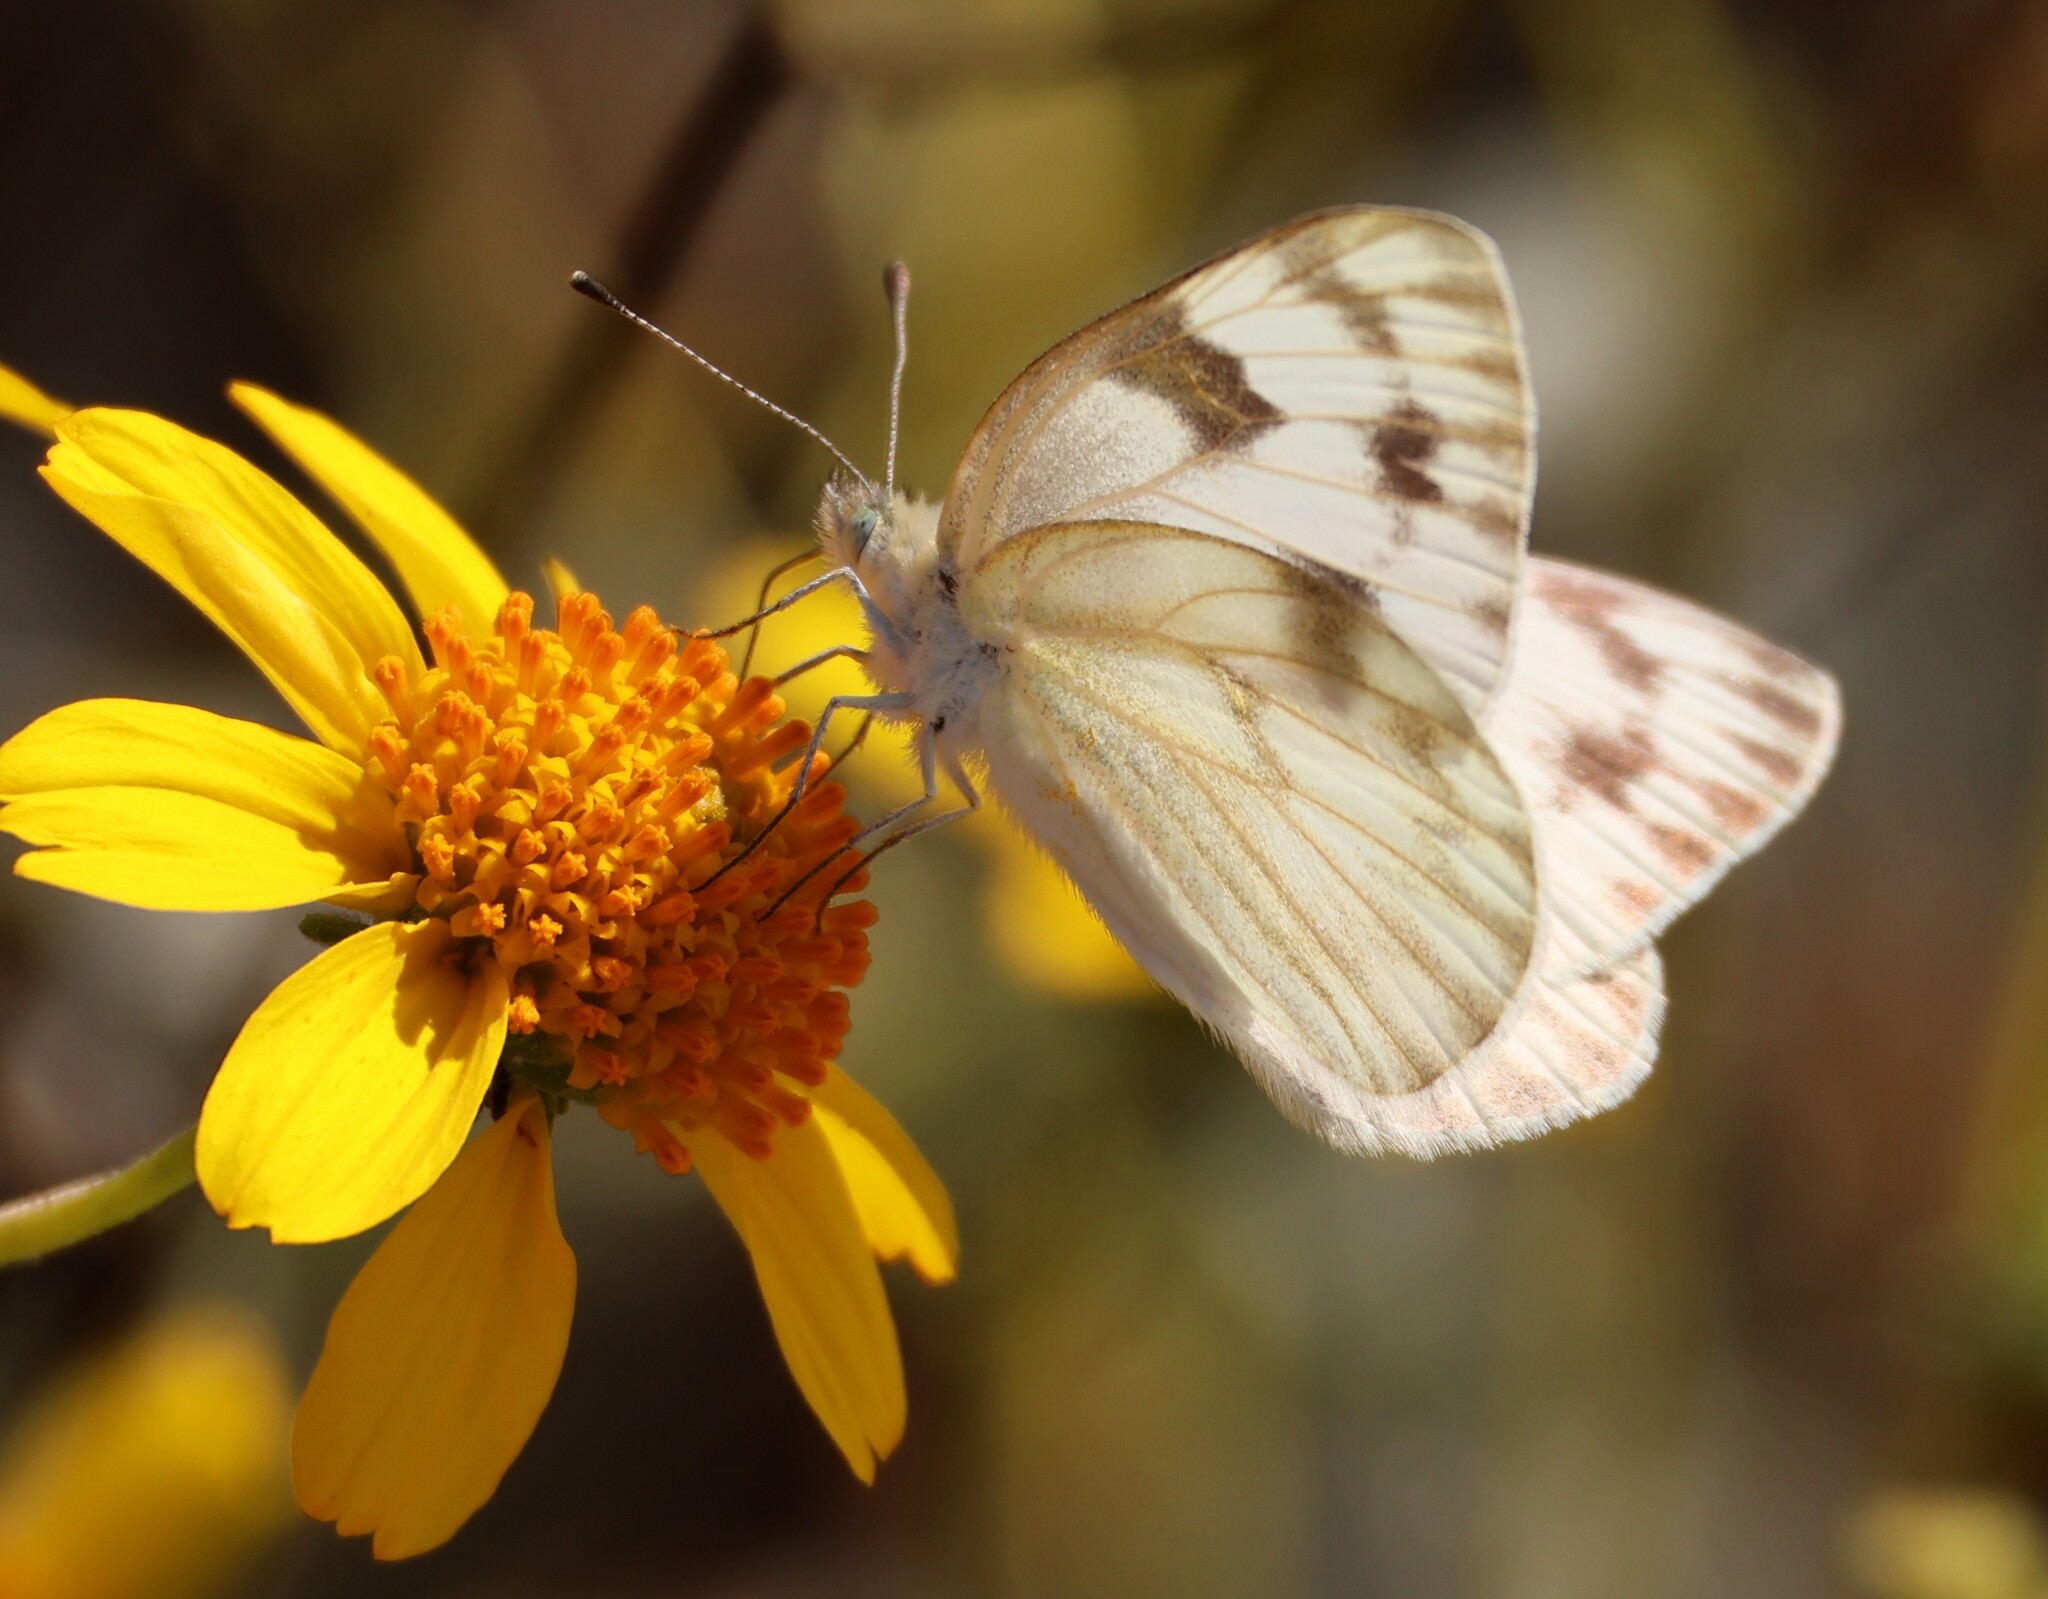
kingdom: Animalia
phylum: Arthropoda
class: Insecta
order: Lepidoptera
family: Pieridae
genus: Pontia
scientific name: Pontia protodice
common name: Checkered white
